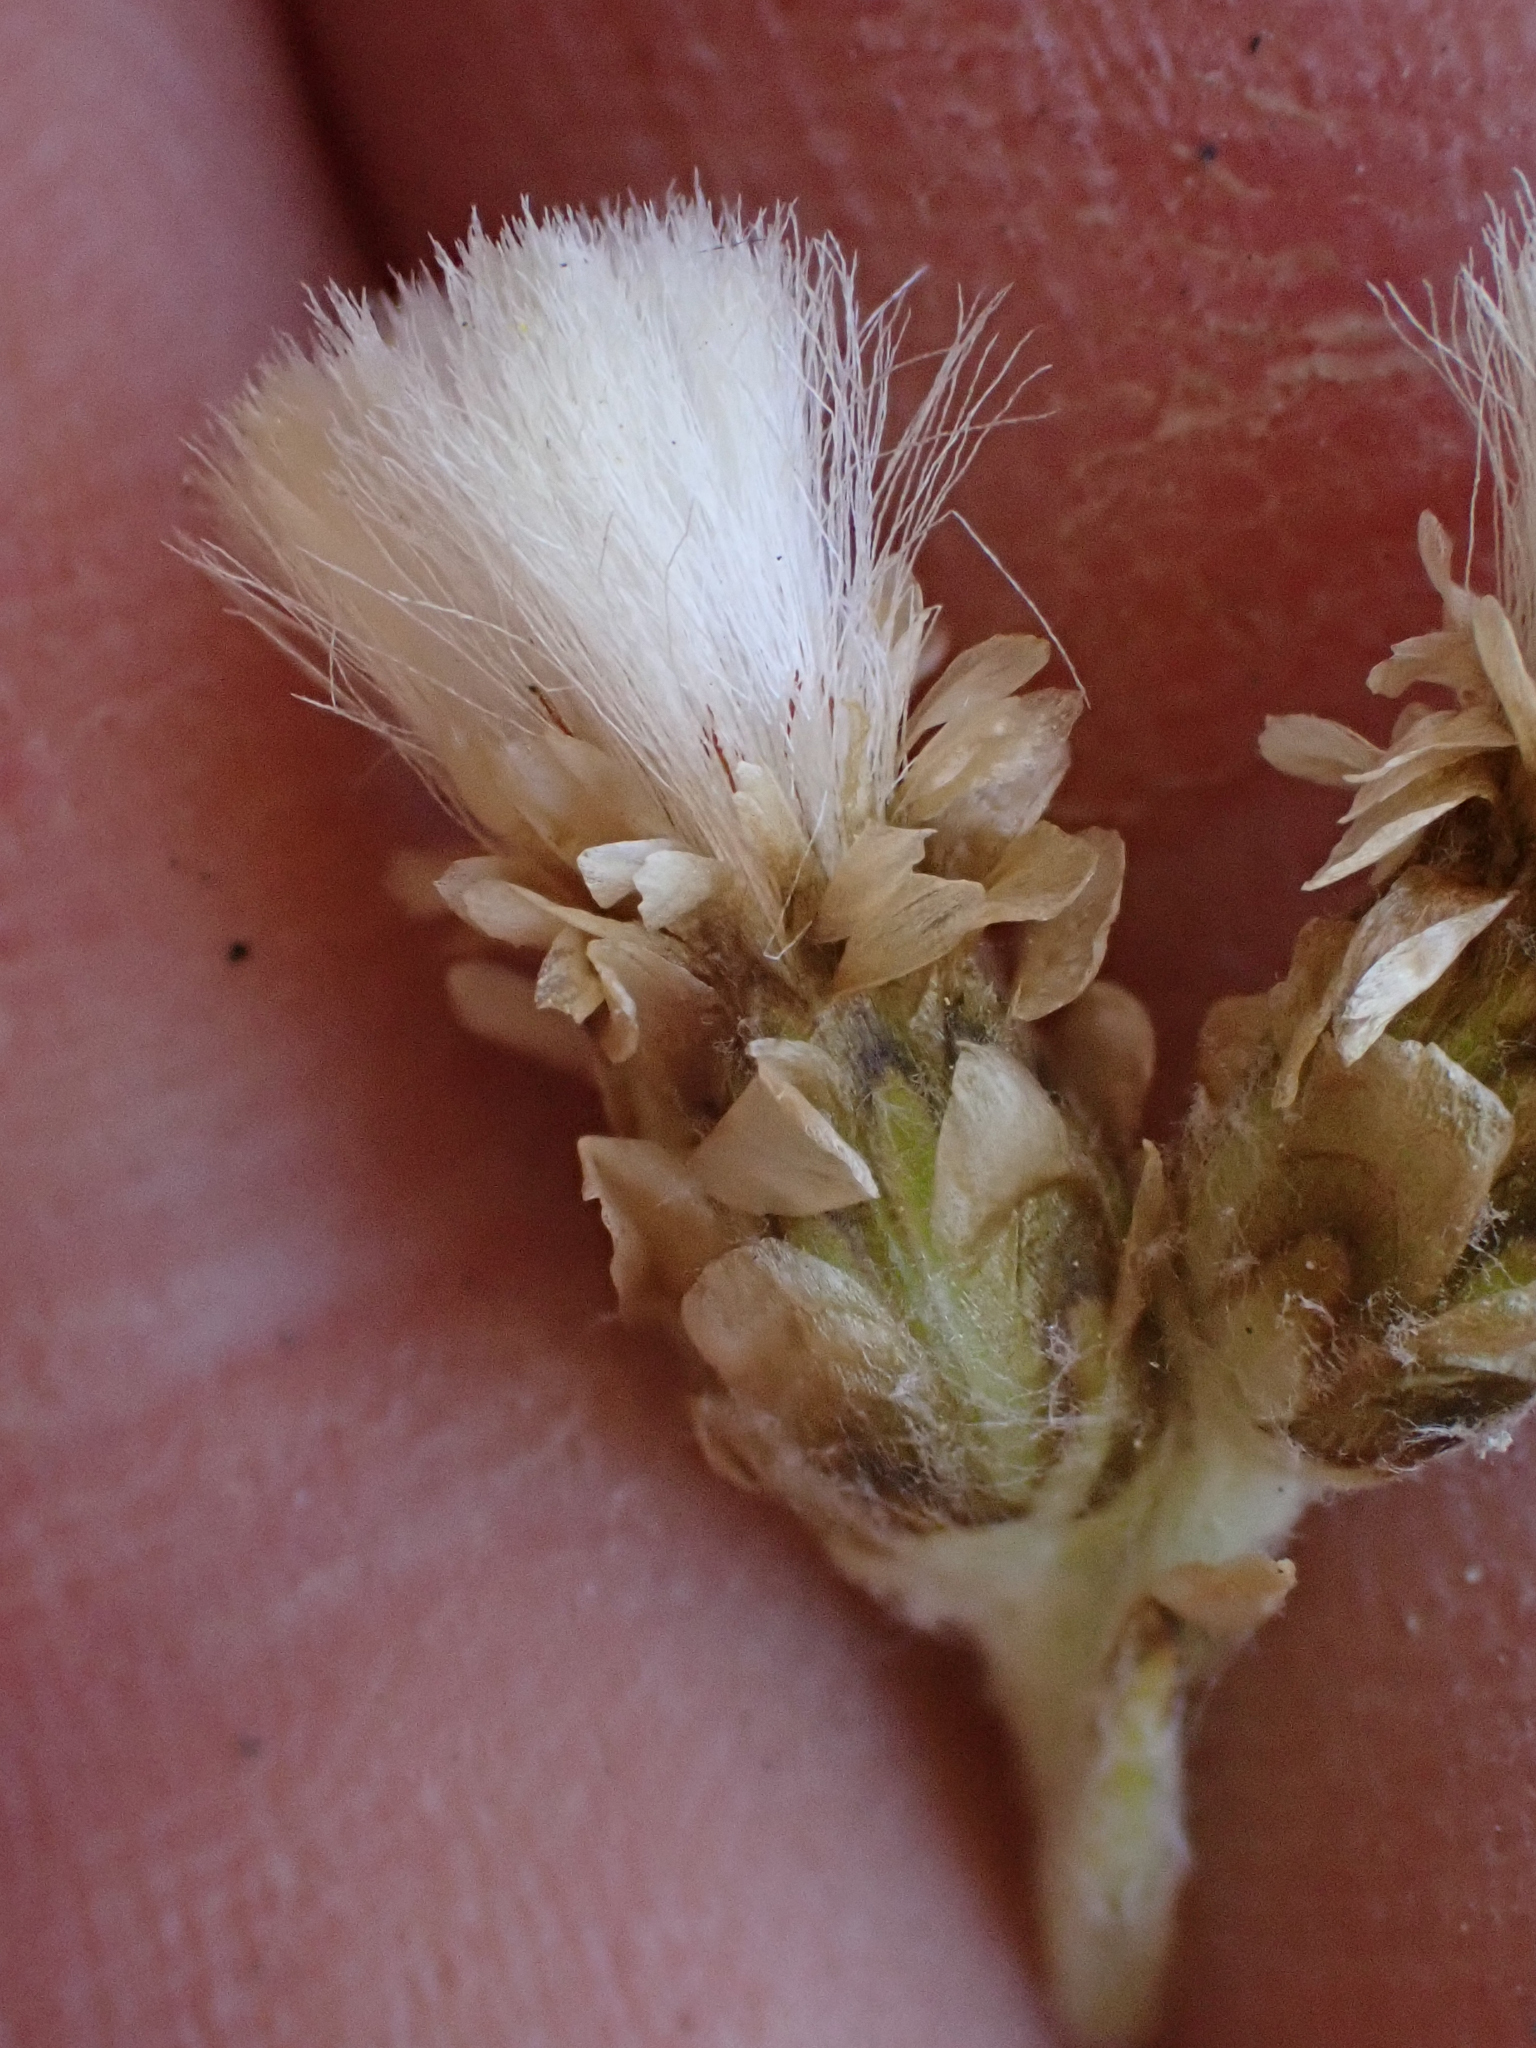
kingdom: Plantae
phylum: Tracheophyta
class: Magnoliopsida
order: Asterales
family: Asteraceae
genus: Antennaria
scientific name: Antennaria pulcherrima
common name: Handsome pussytoes
